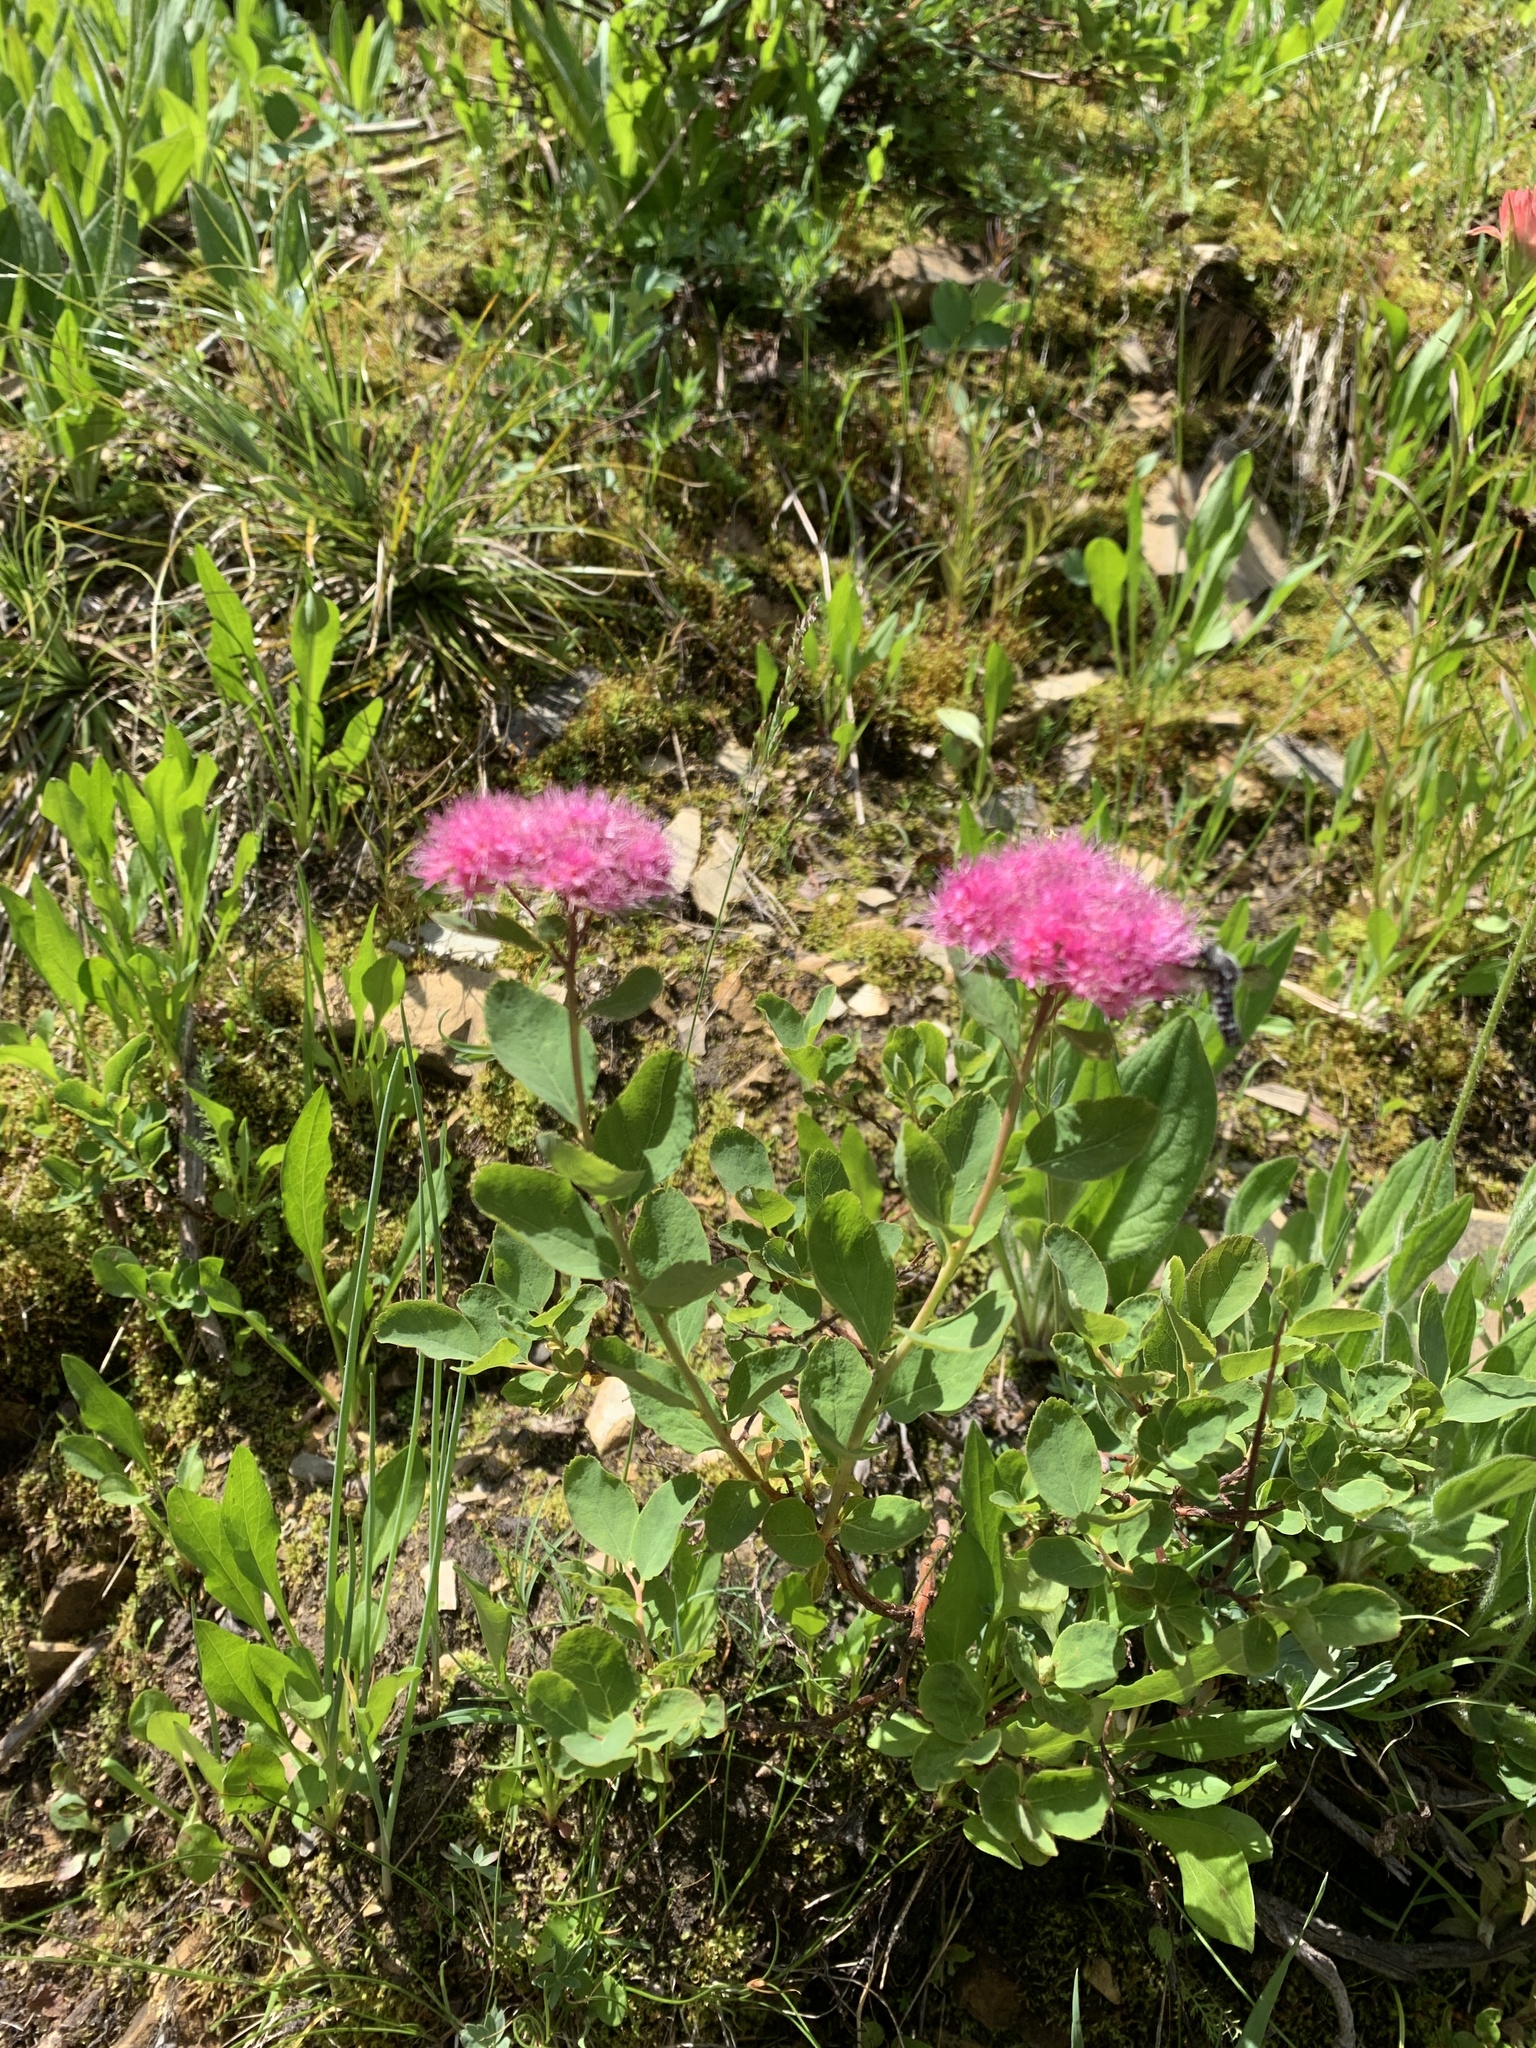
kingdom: Plantae
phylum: Tracheophyta
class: Magnoliopsida
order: Rosales
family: Rosaceae
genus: Spiraea
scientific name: Spiraea splendens
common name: Subalpine meadowsweet
